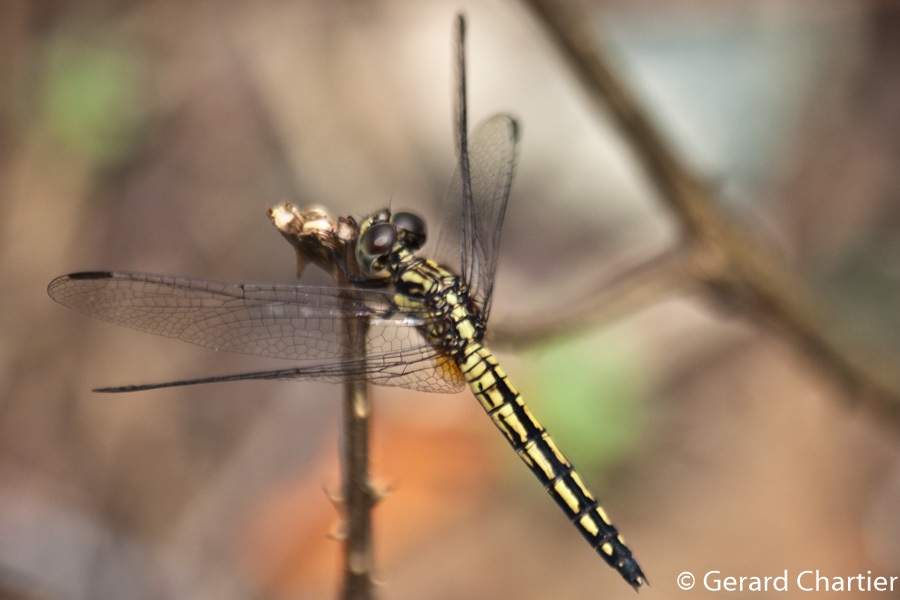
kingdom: Animalia
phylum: Arthropoda
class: Insecta
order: Odonata
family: Libellulidae
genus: Indothemis
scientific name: Indothemis carnatica
